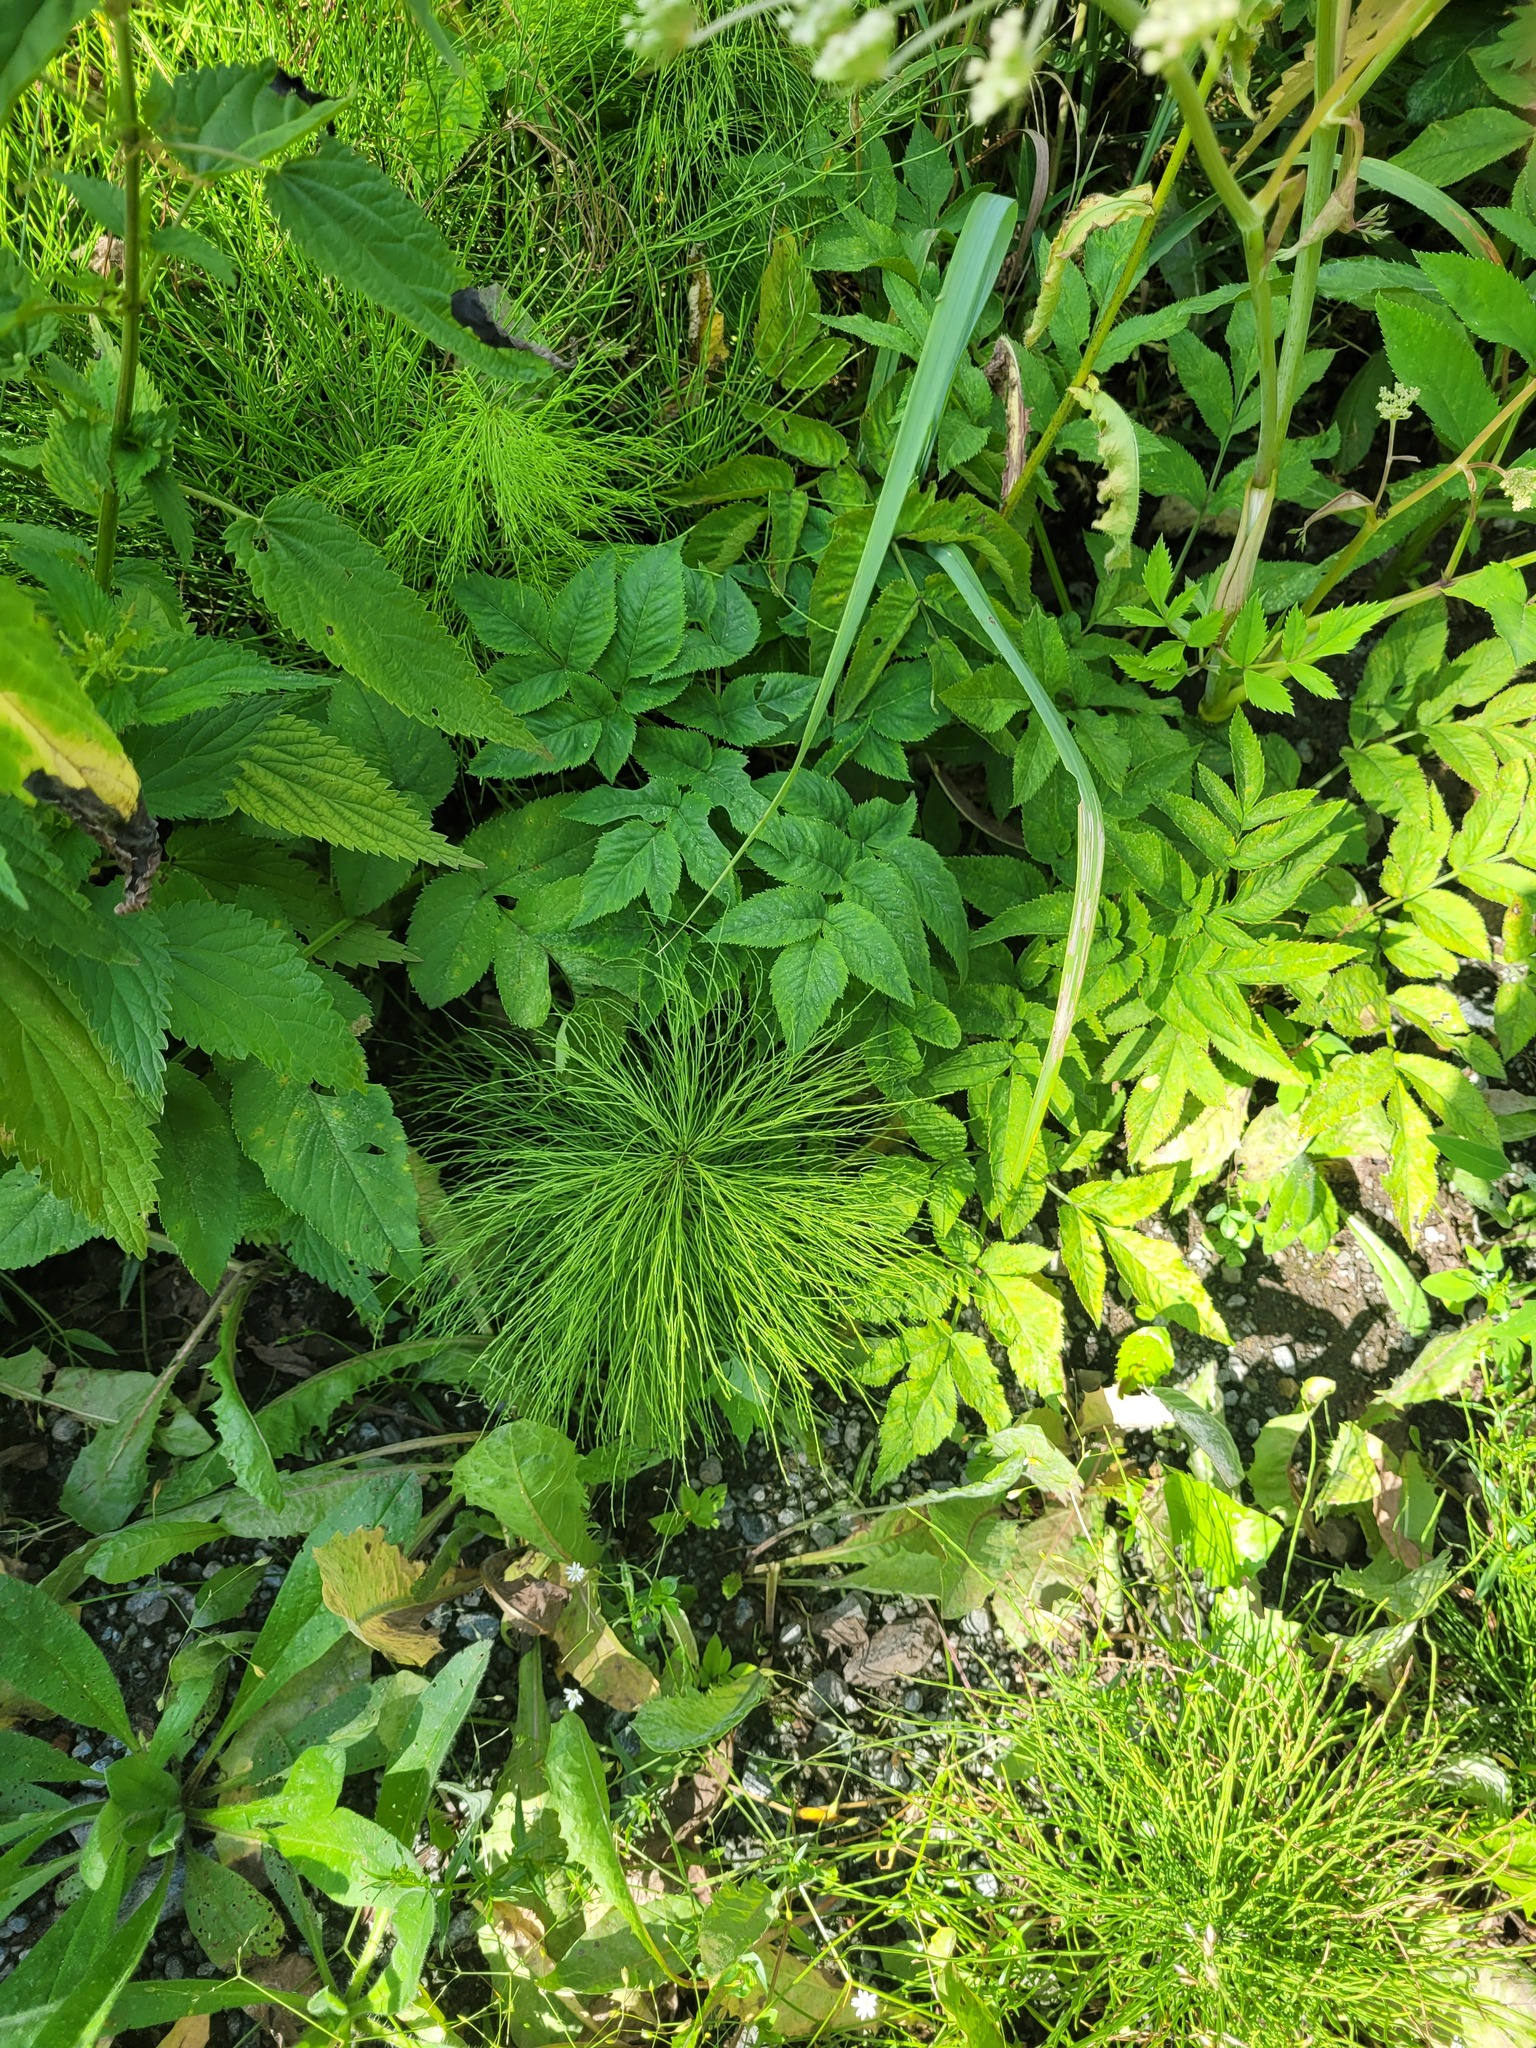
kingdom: Plantae
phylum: Tracheophyta
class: Polypodiopsida
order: Equisetales
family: Equisetaceae
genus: Equisetum
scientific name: Equisetum sylvaticum
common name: Wood horsetail
